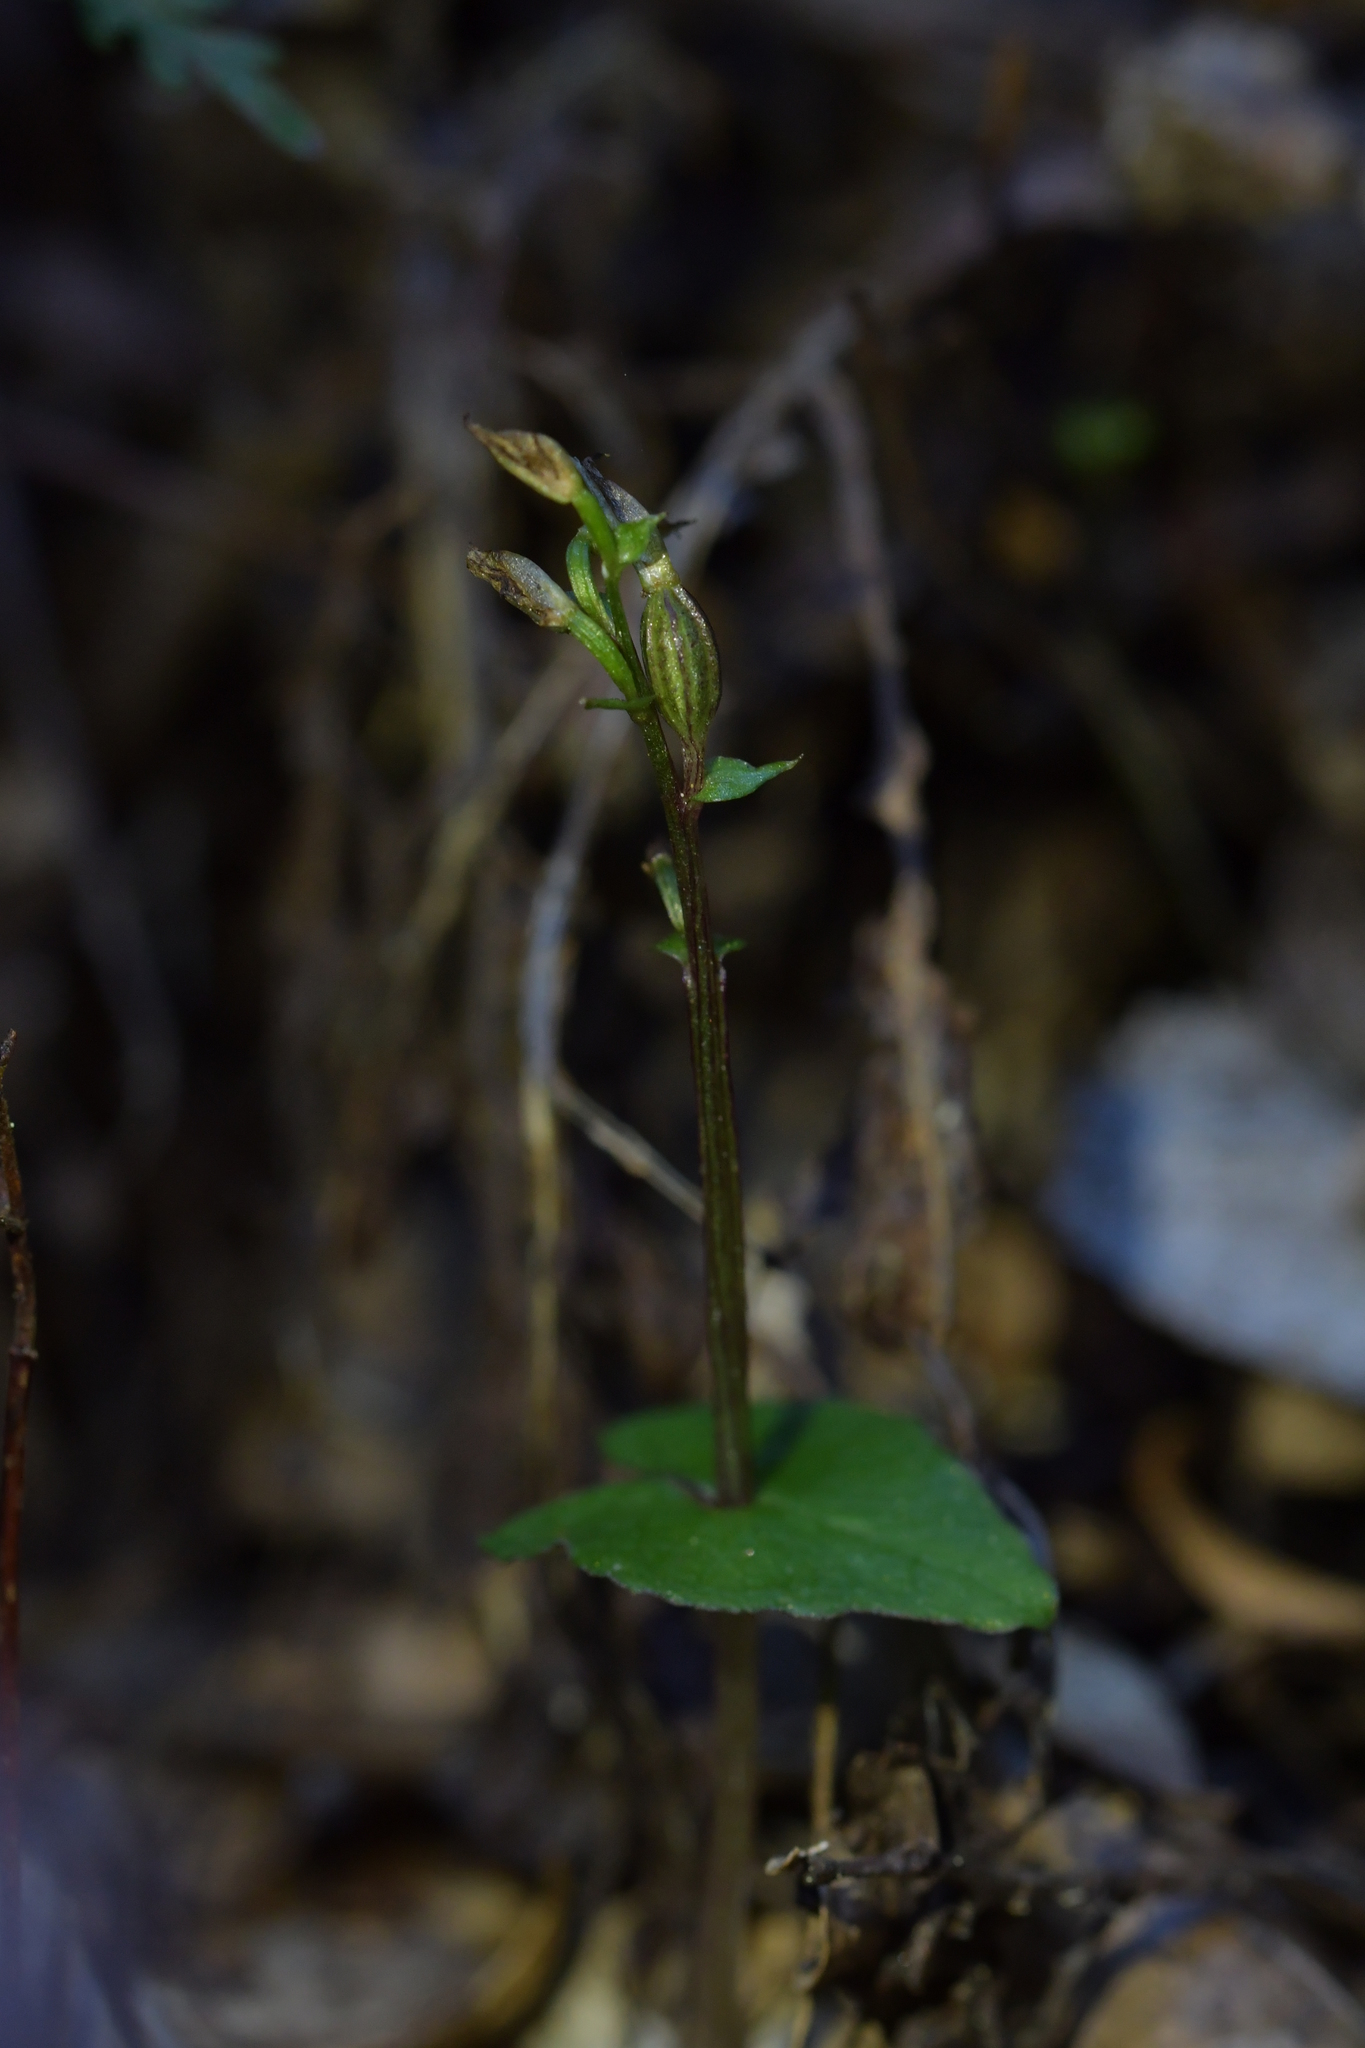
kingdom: Plantae
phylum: Tracheophyta
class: Liliopsida
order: Asparagales
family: Orchidaceae
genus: Acianthus
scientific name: Acianthus sinclairii
